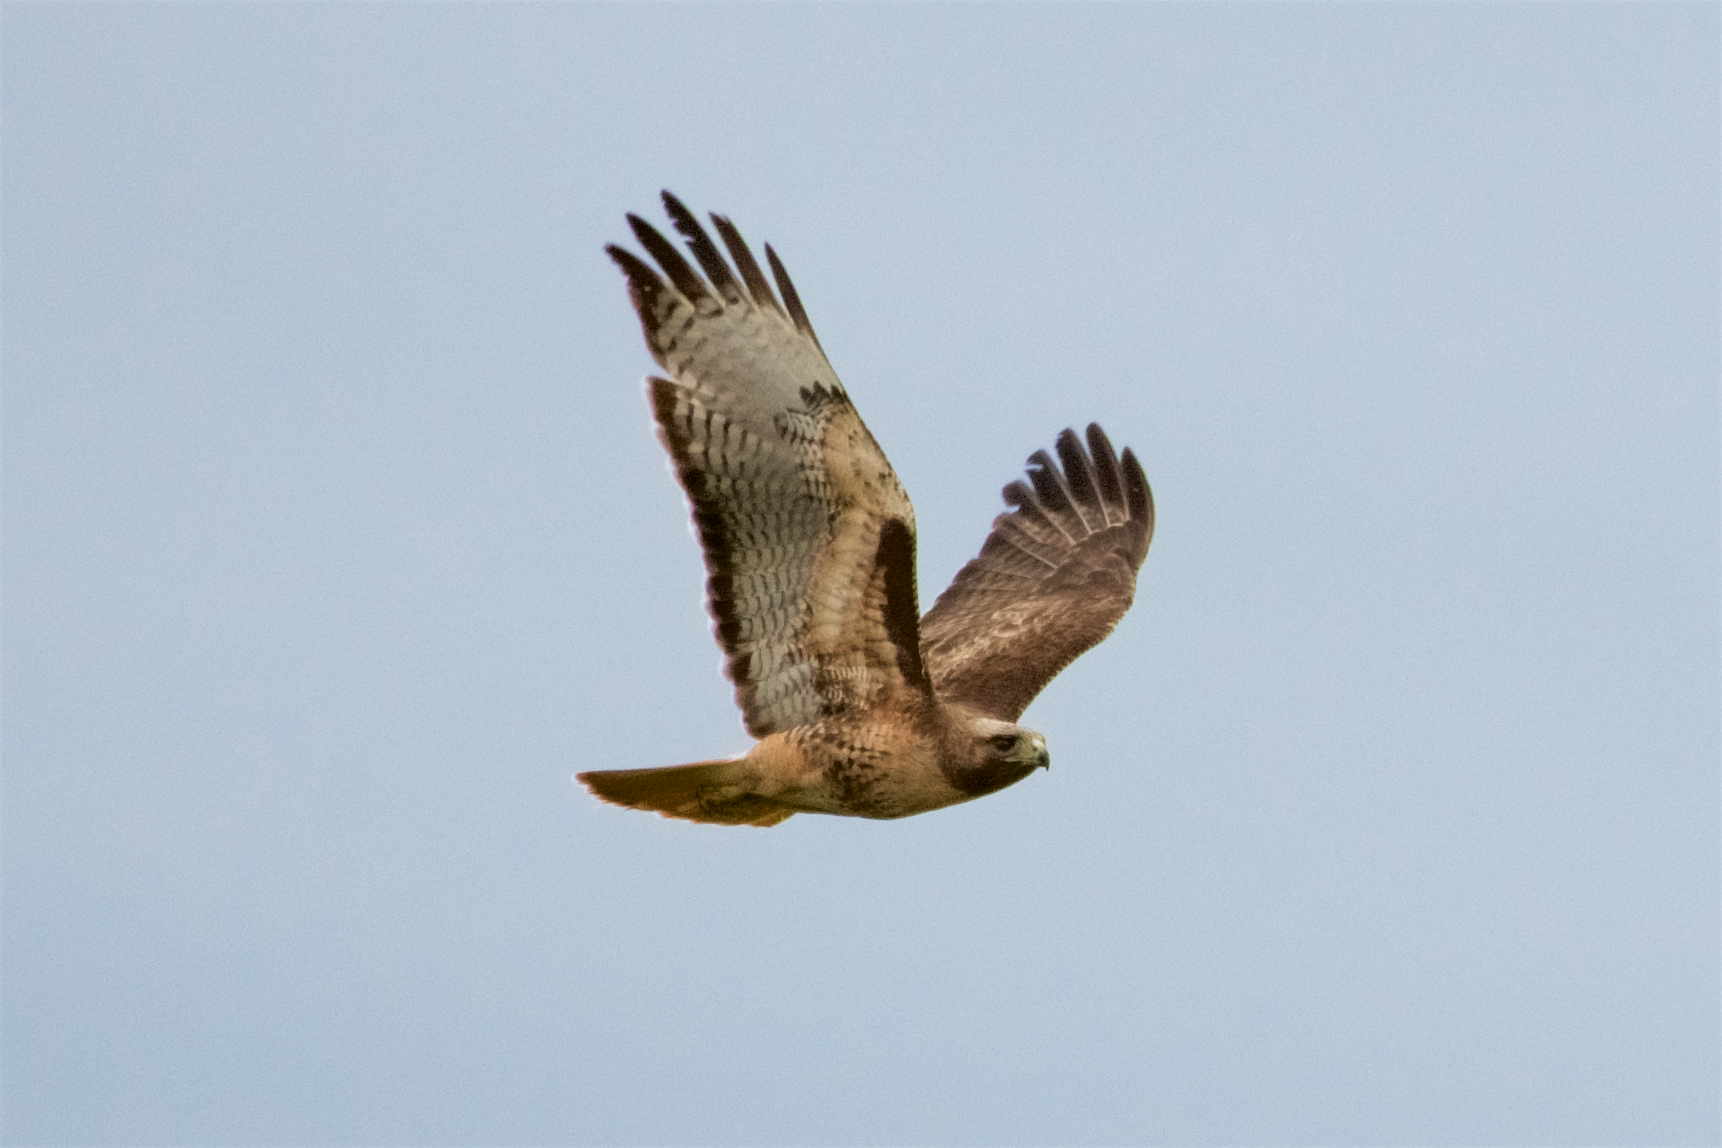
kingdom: Animalia
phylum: Chordata
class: Aves
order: Accipitriformes
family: Accipitridae
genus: Buteo
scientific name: Buteo jamaicensis
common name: Red-tailed hawk
